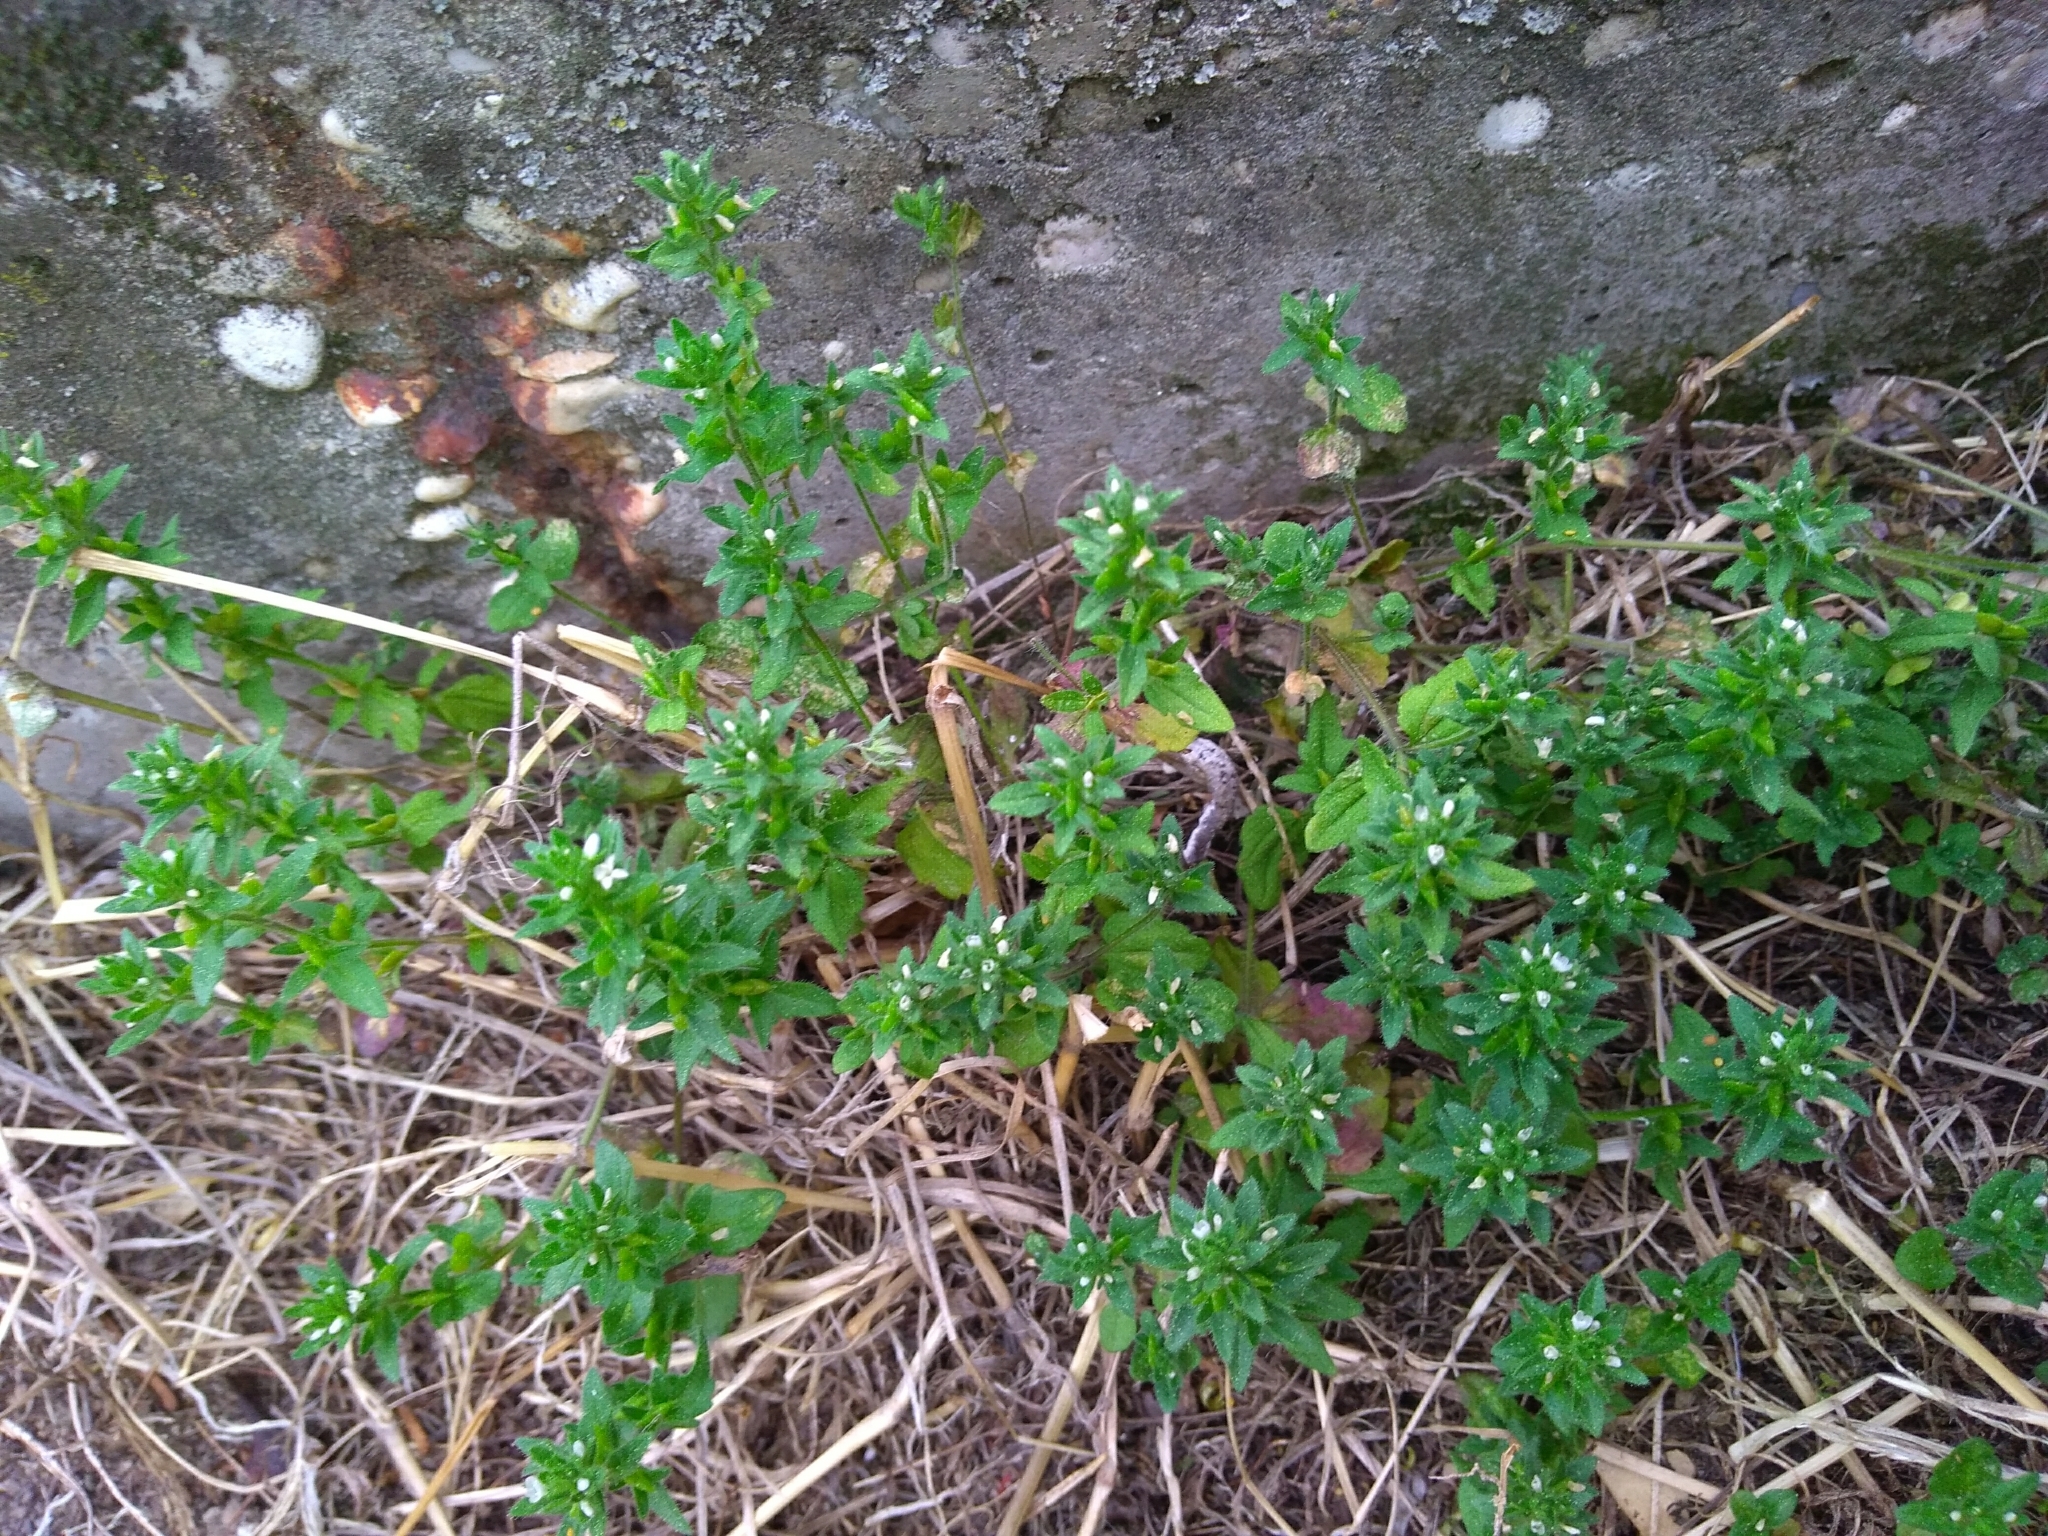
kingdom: Plantae
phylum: Tracheophyta
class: Magnoliopsida
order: Lamiales
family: Plantaginaceae
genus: Veronica
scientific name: Veronica arvensis
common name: Corn speedwell
